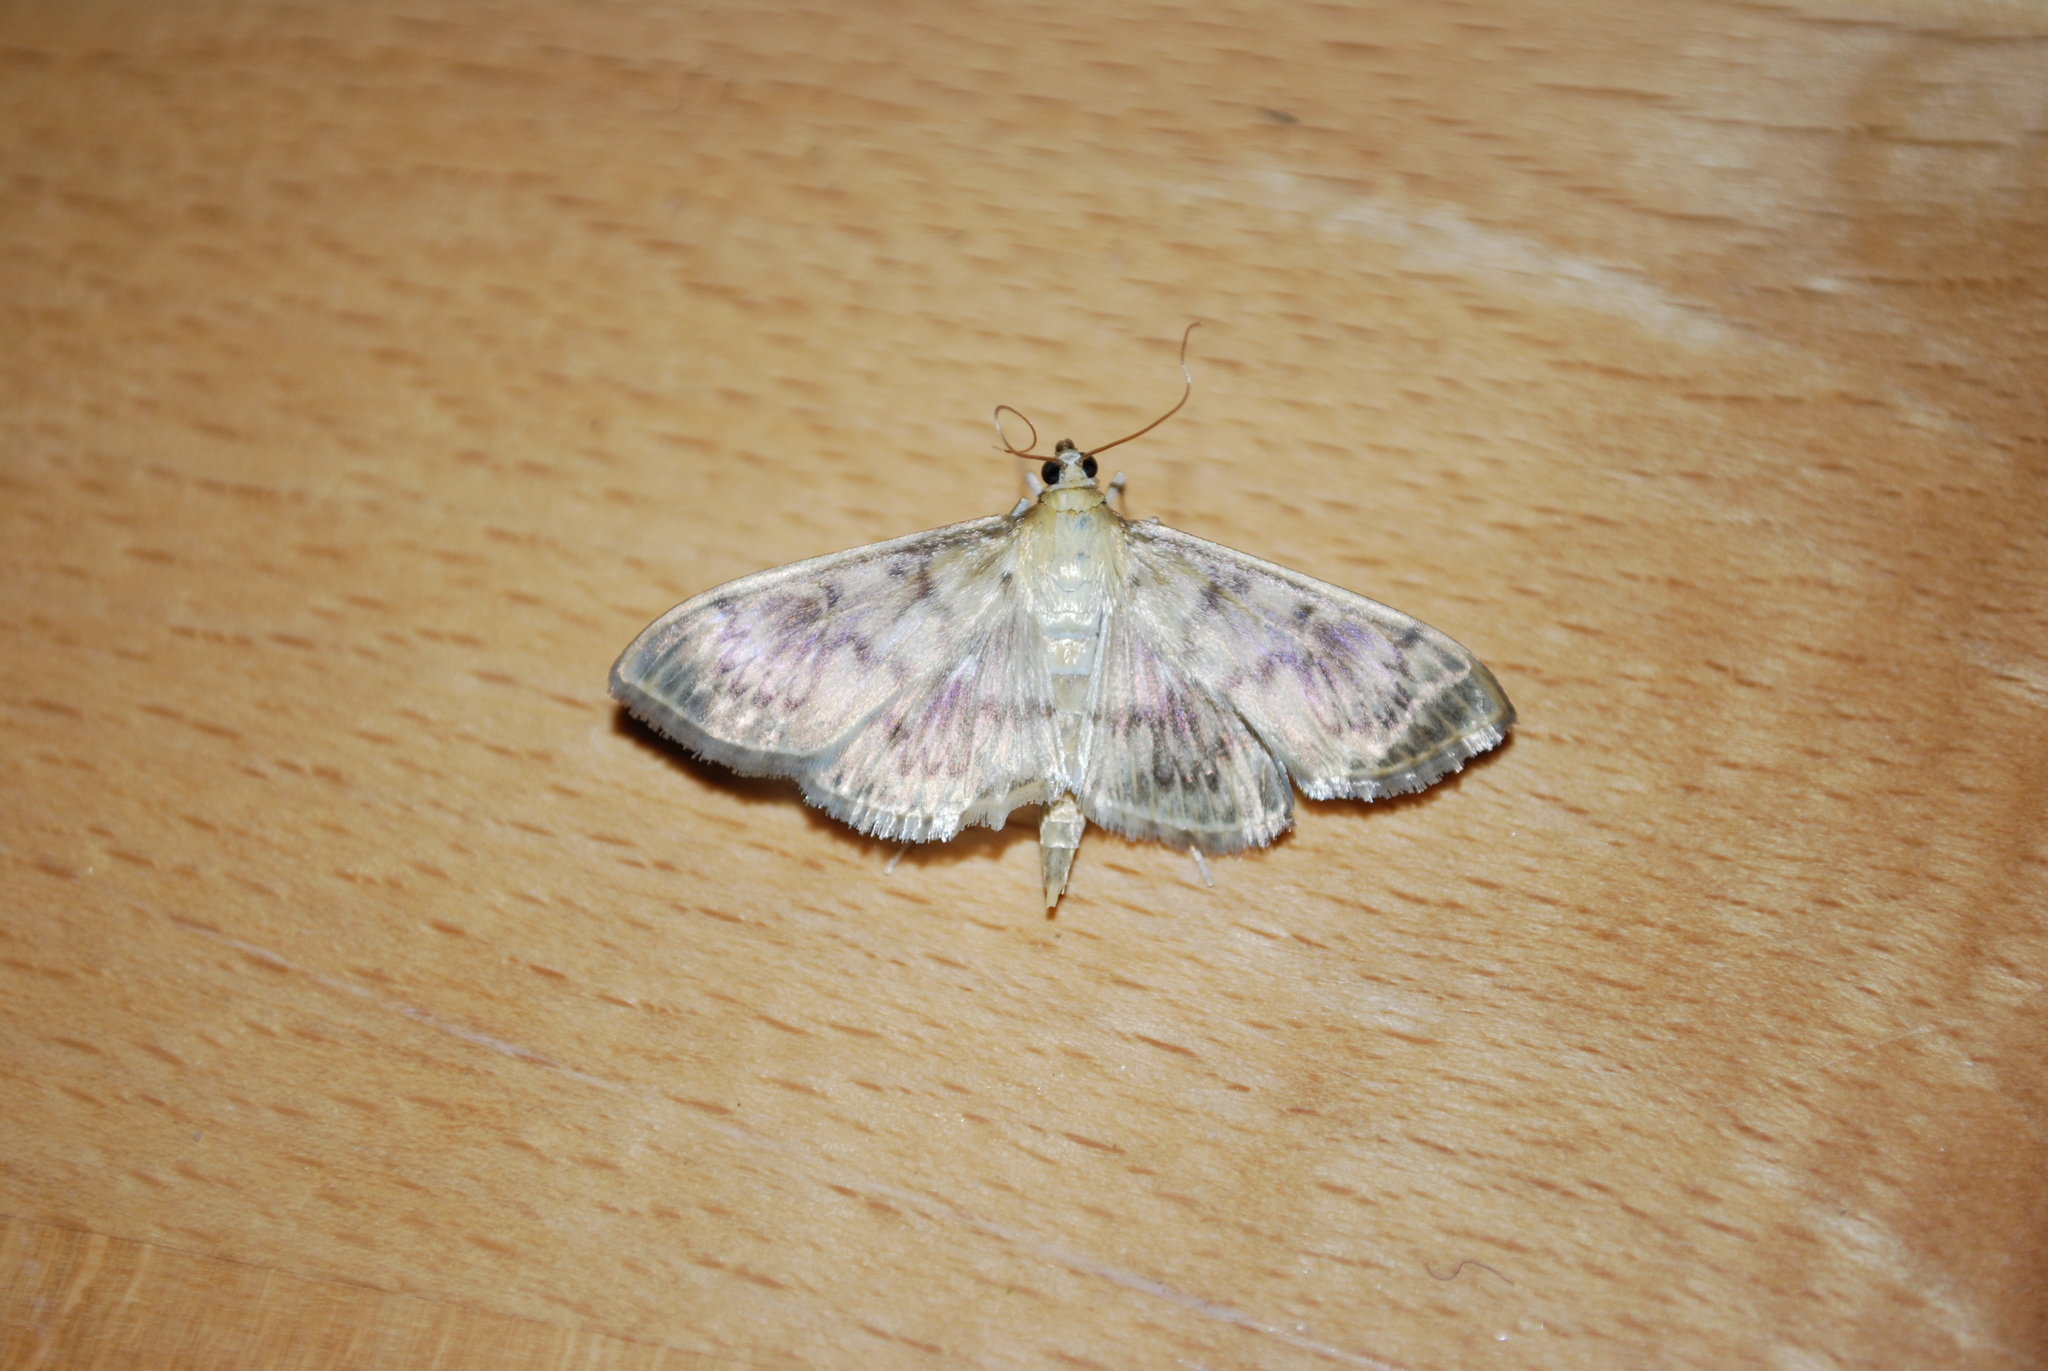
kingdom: Animalia
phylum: Arthropoda
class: Insecta
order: Lepidoptera
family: Crambidae
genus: Patania
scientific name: Patania ruralis
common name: Mother of pearl
